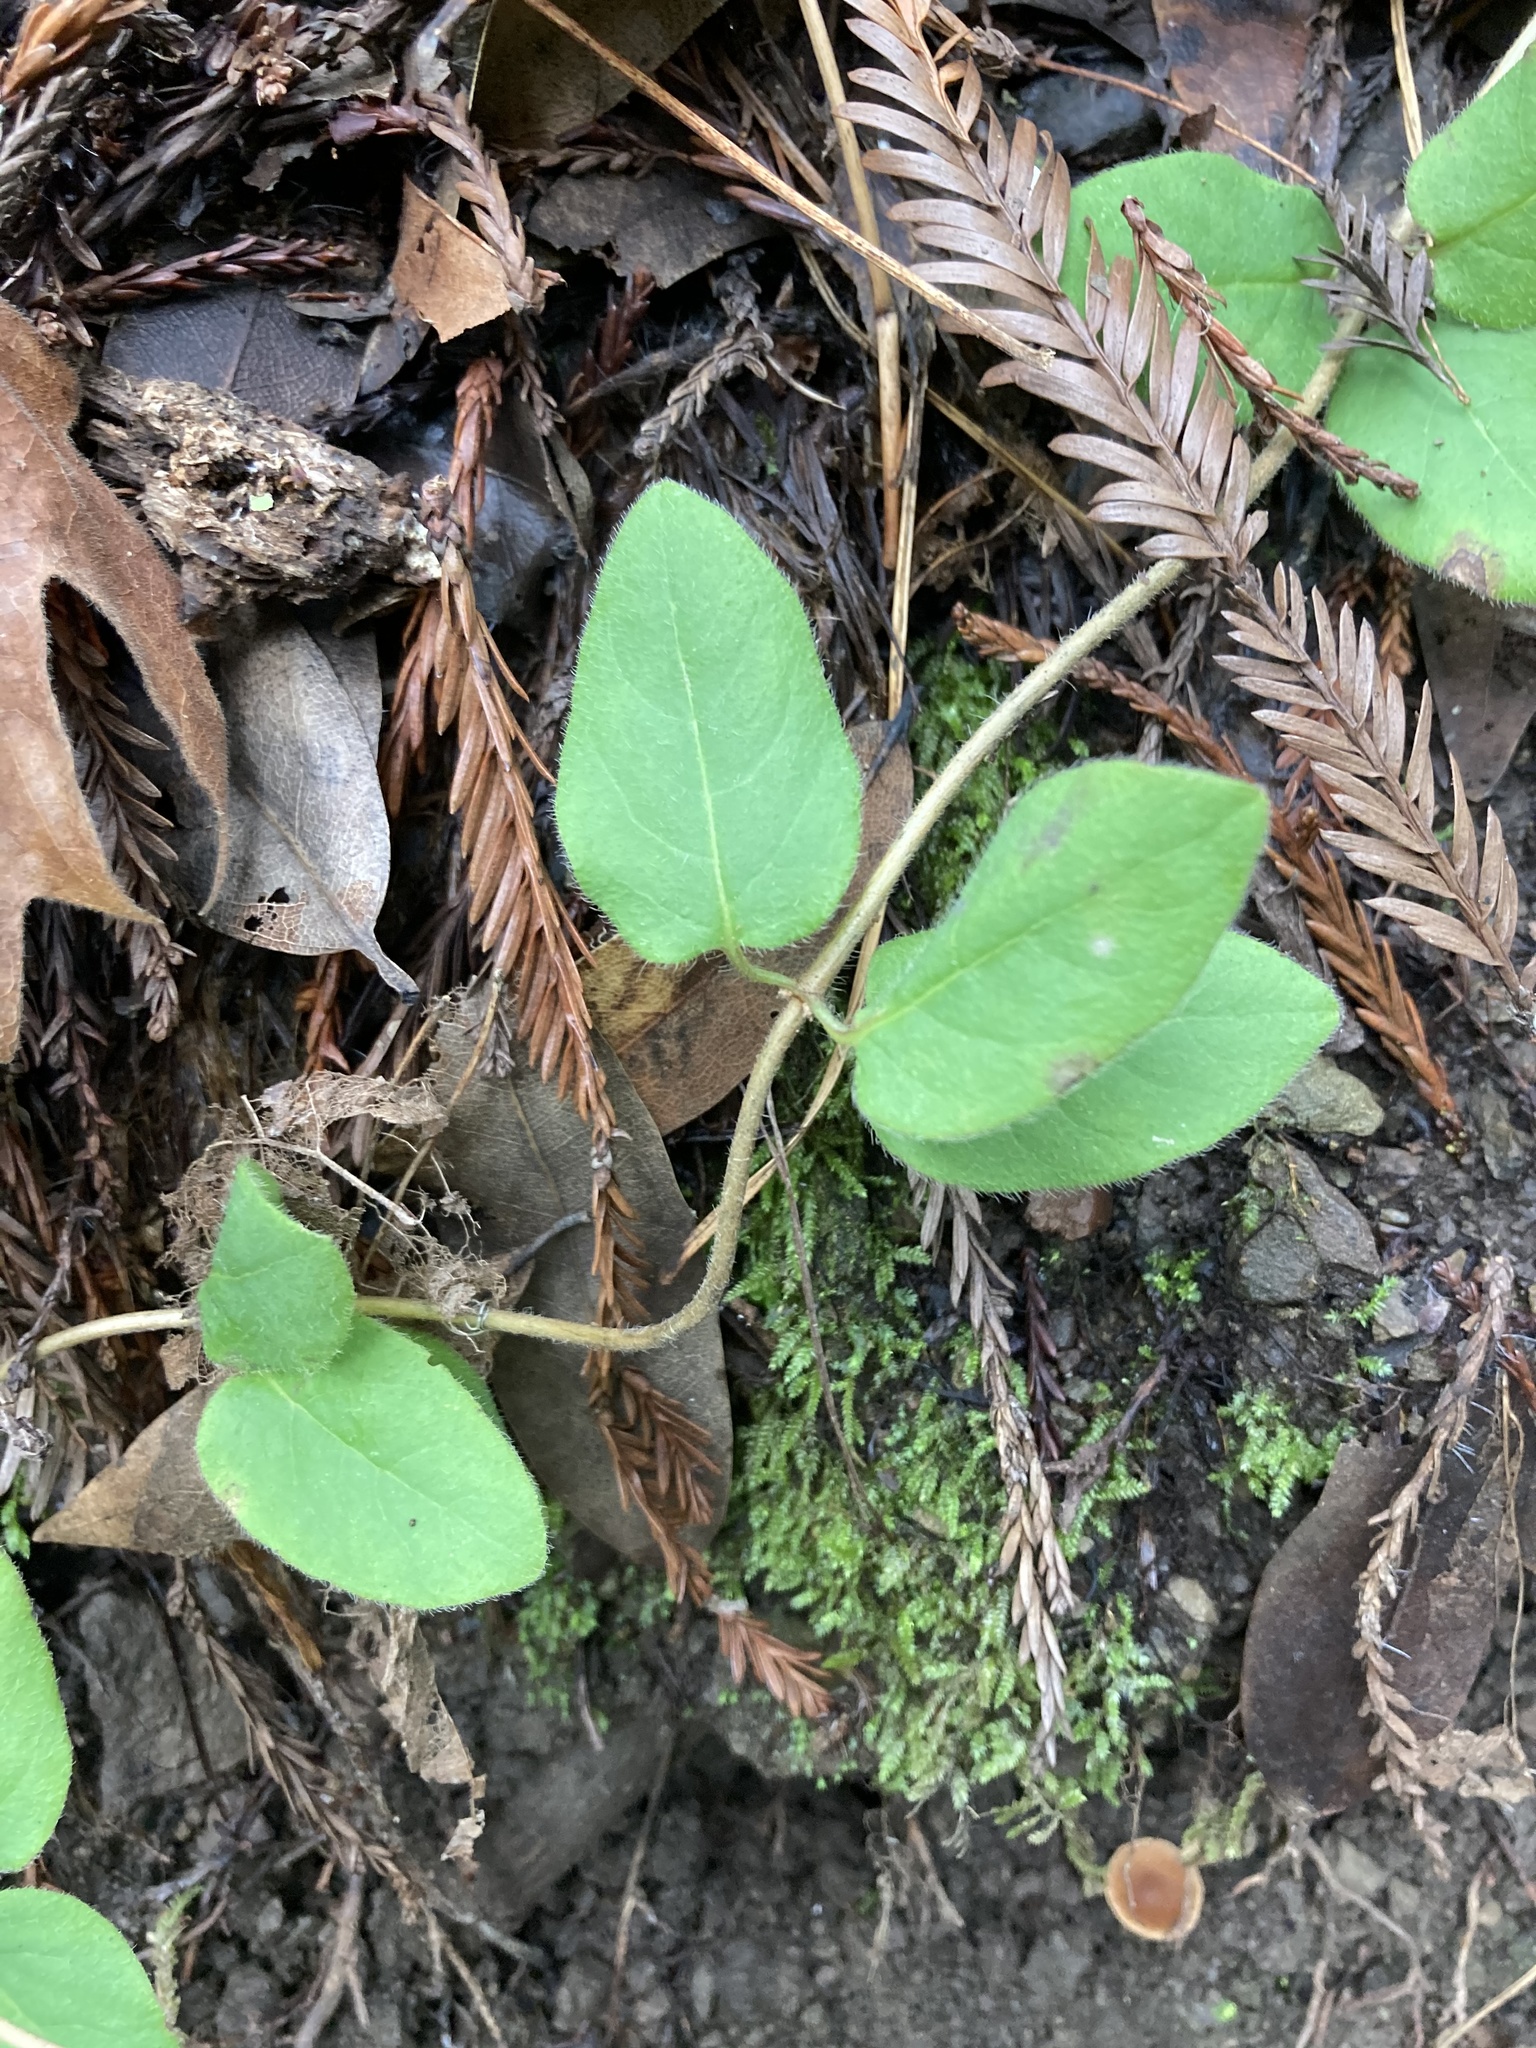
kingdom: Plantae
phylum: Tracheophyta
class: Magnoliopsida
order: Dipsacales
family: Caprifoliaceae
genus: Lonicera
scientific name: Lonicera hispidula
